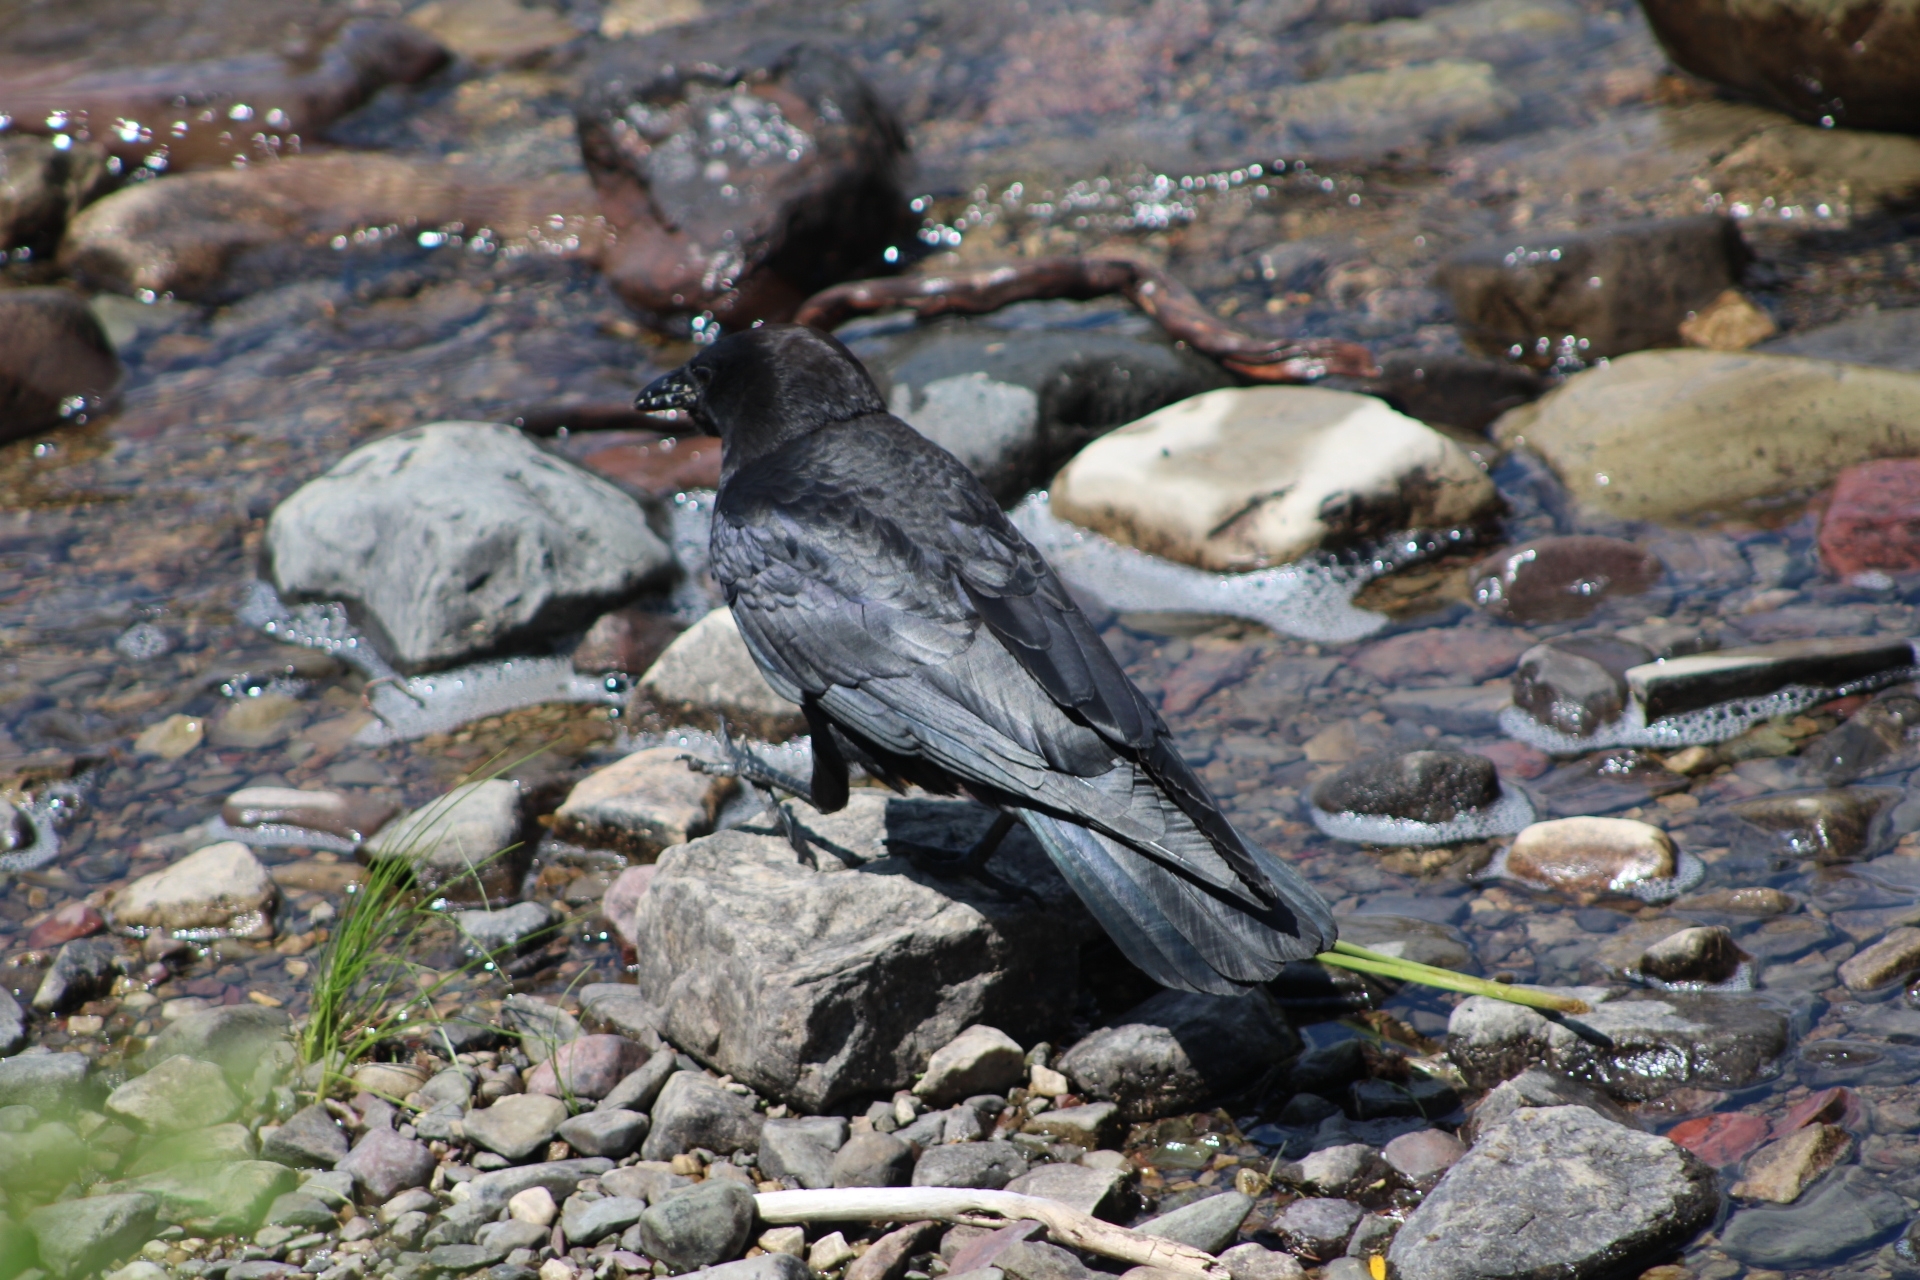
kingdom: Animalia
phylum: Chordata
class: Aves
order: Passeriformes
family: Corvidae
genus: Corvus
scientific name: Corvus brachyrhynchos
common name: American crow
